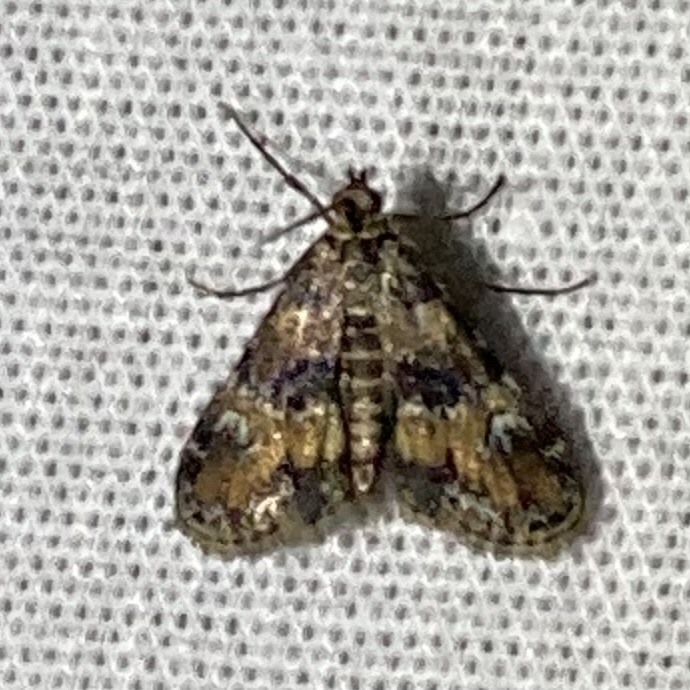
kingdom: Animalia
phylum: Arthropoda
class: Insecta
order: Lepidoptera
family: Crambidae
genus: Elophila
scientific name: Elophila obliteralis
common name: Waterlily leafcutter moth
